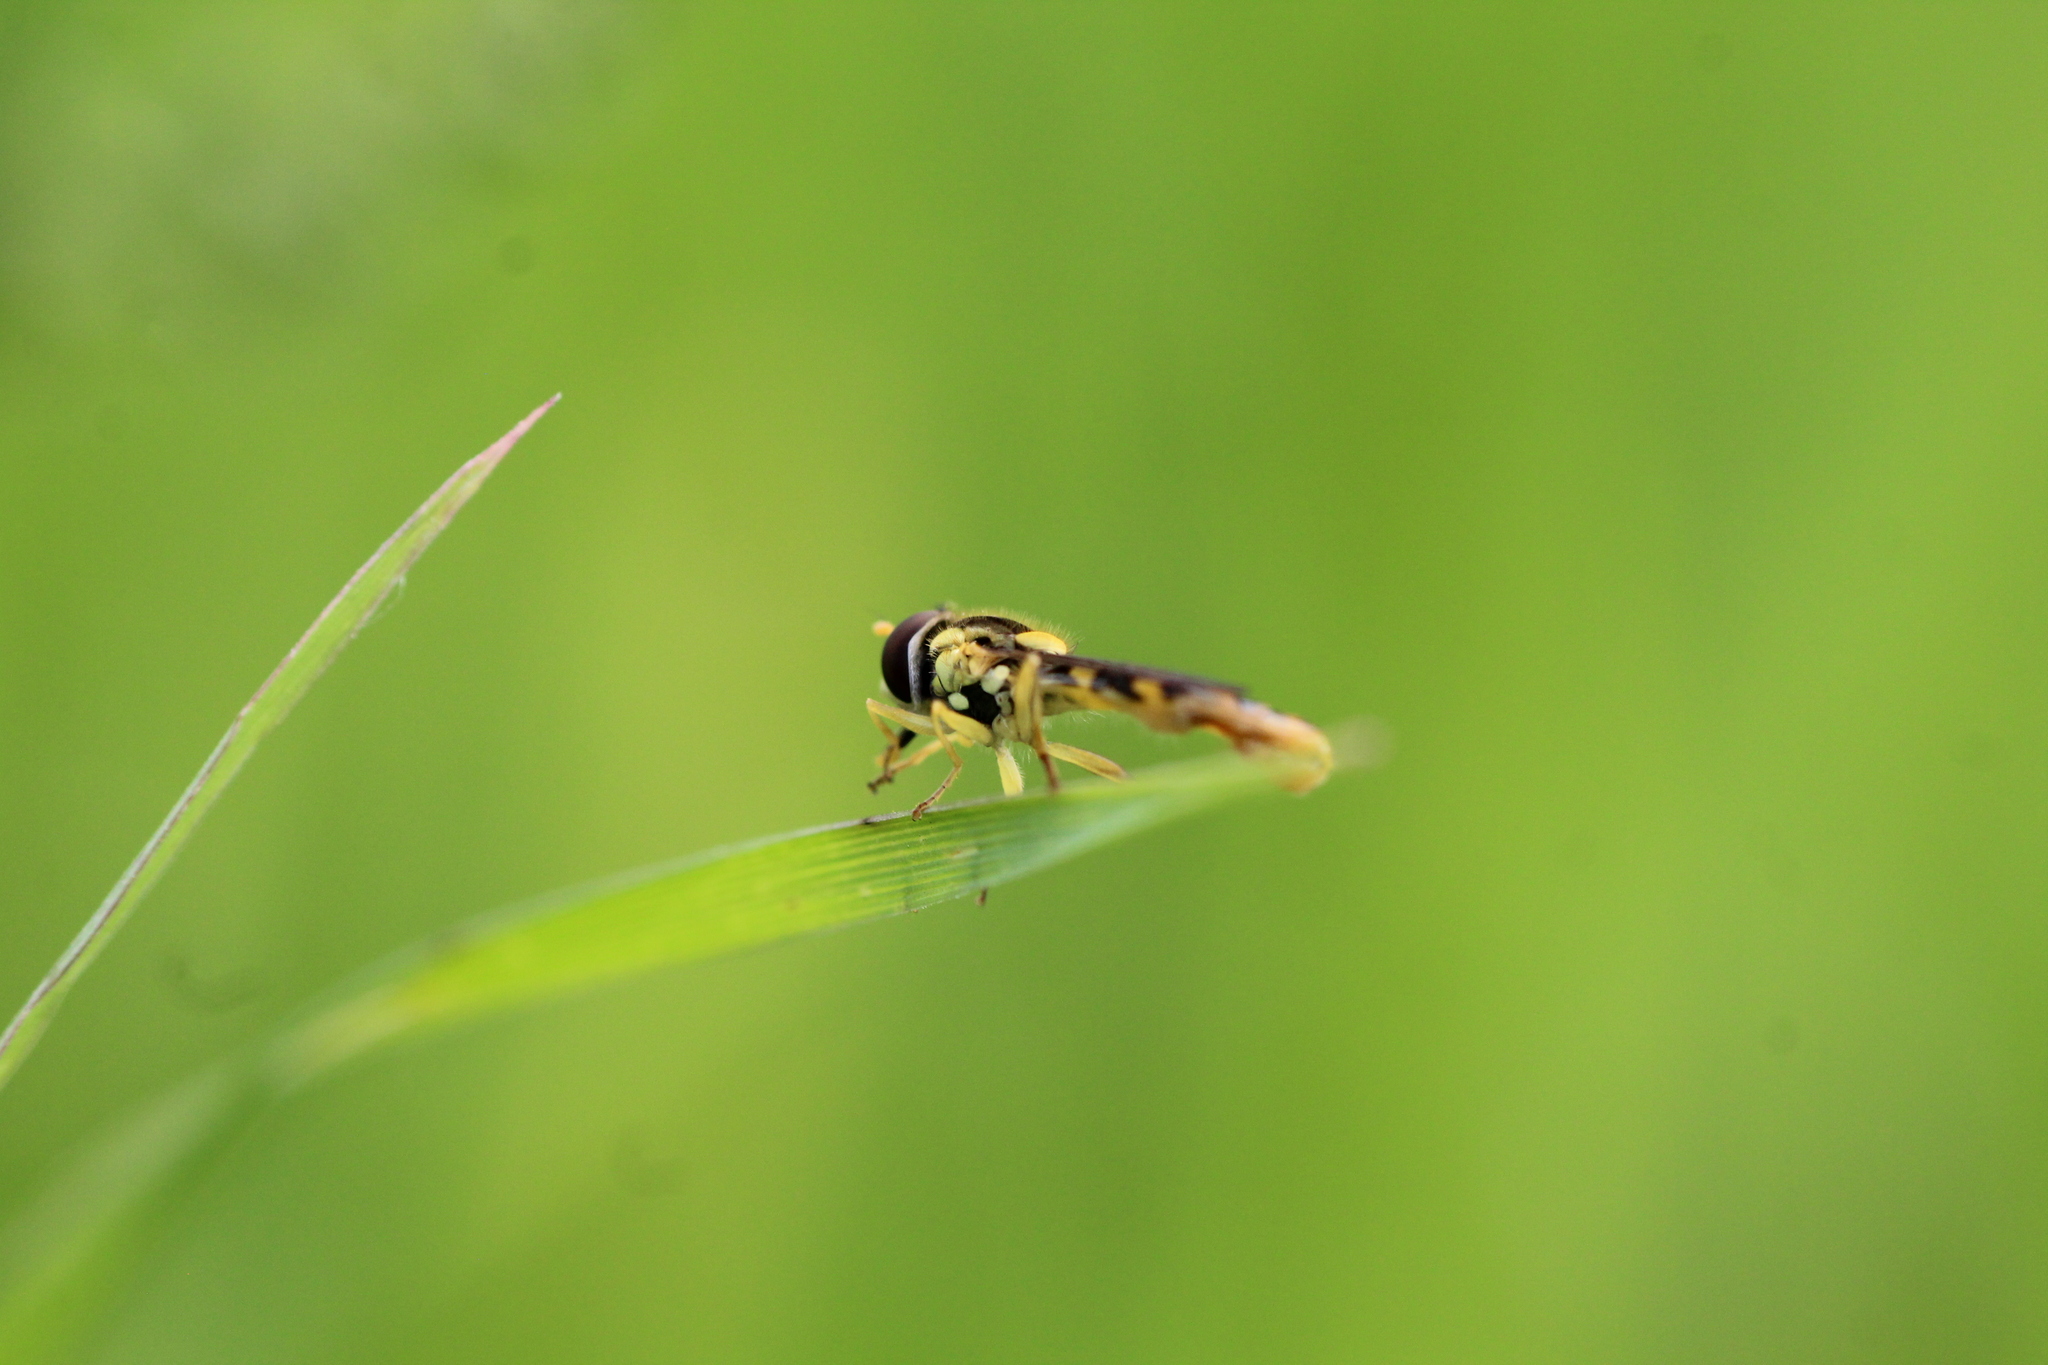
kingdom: Animalia
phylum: Arthropoda
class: Insecta
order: Diptera
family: Syrphidae
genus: Sphaerophoria
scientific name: Sphaerophoria scripta
